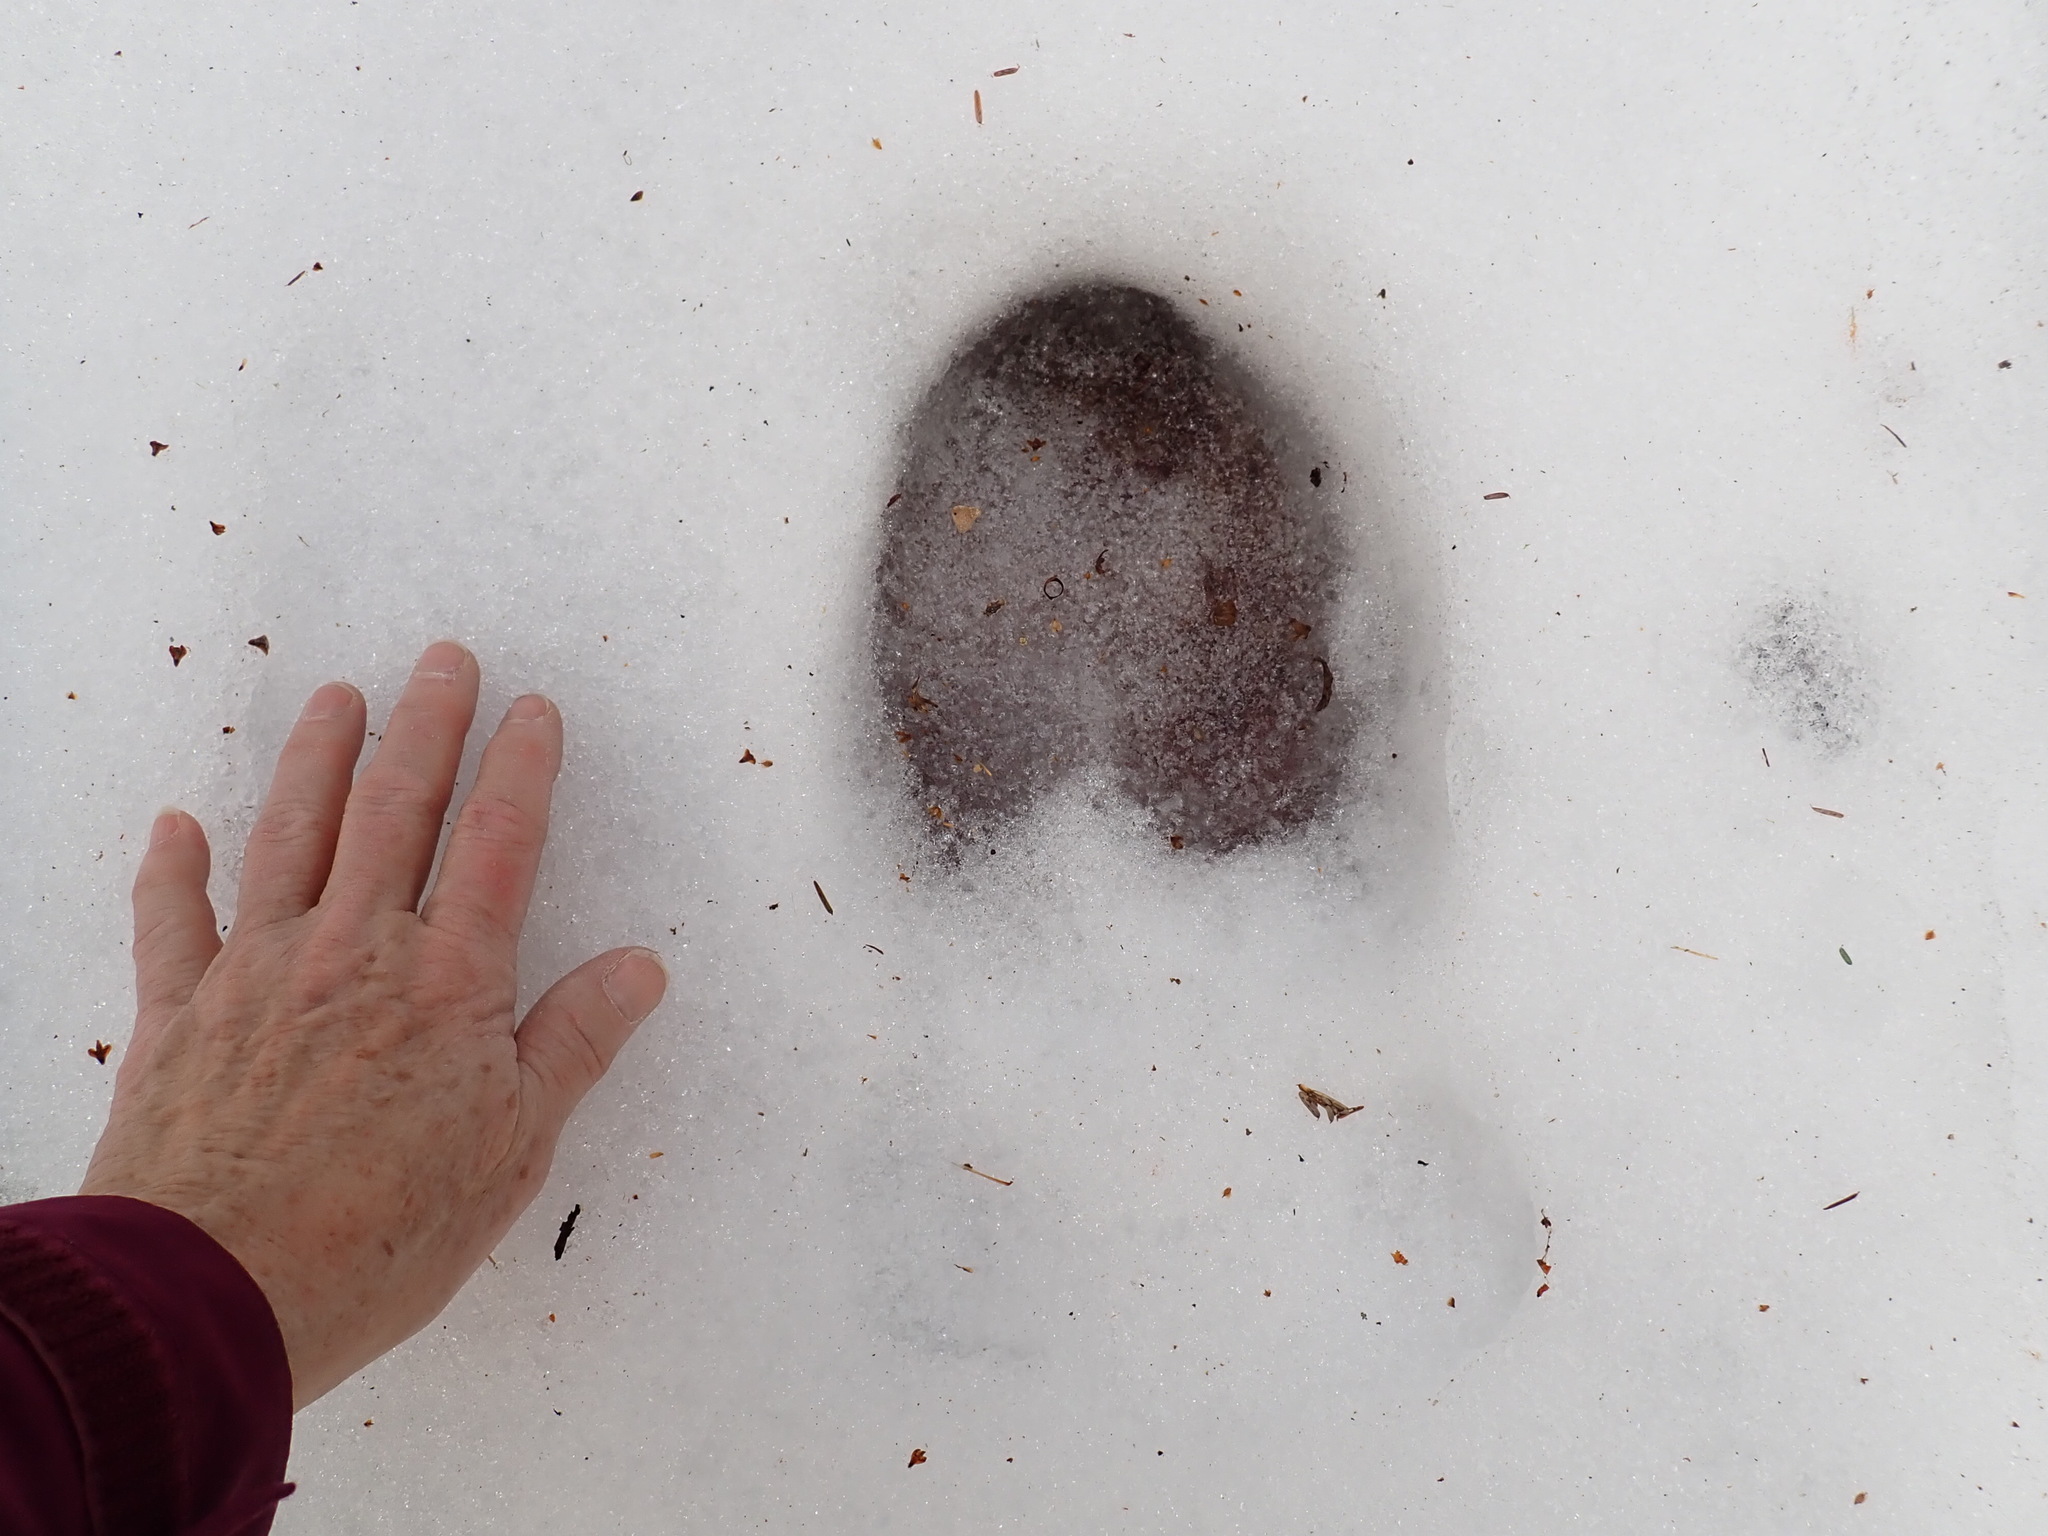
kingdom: Animalia
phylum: Chordata
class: Mammalia
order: Artiodactyla
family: Cervidae
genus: Alces
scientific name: Alces alces
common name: Moose
